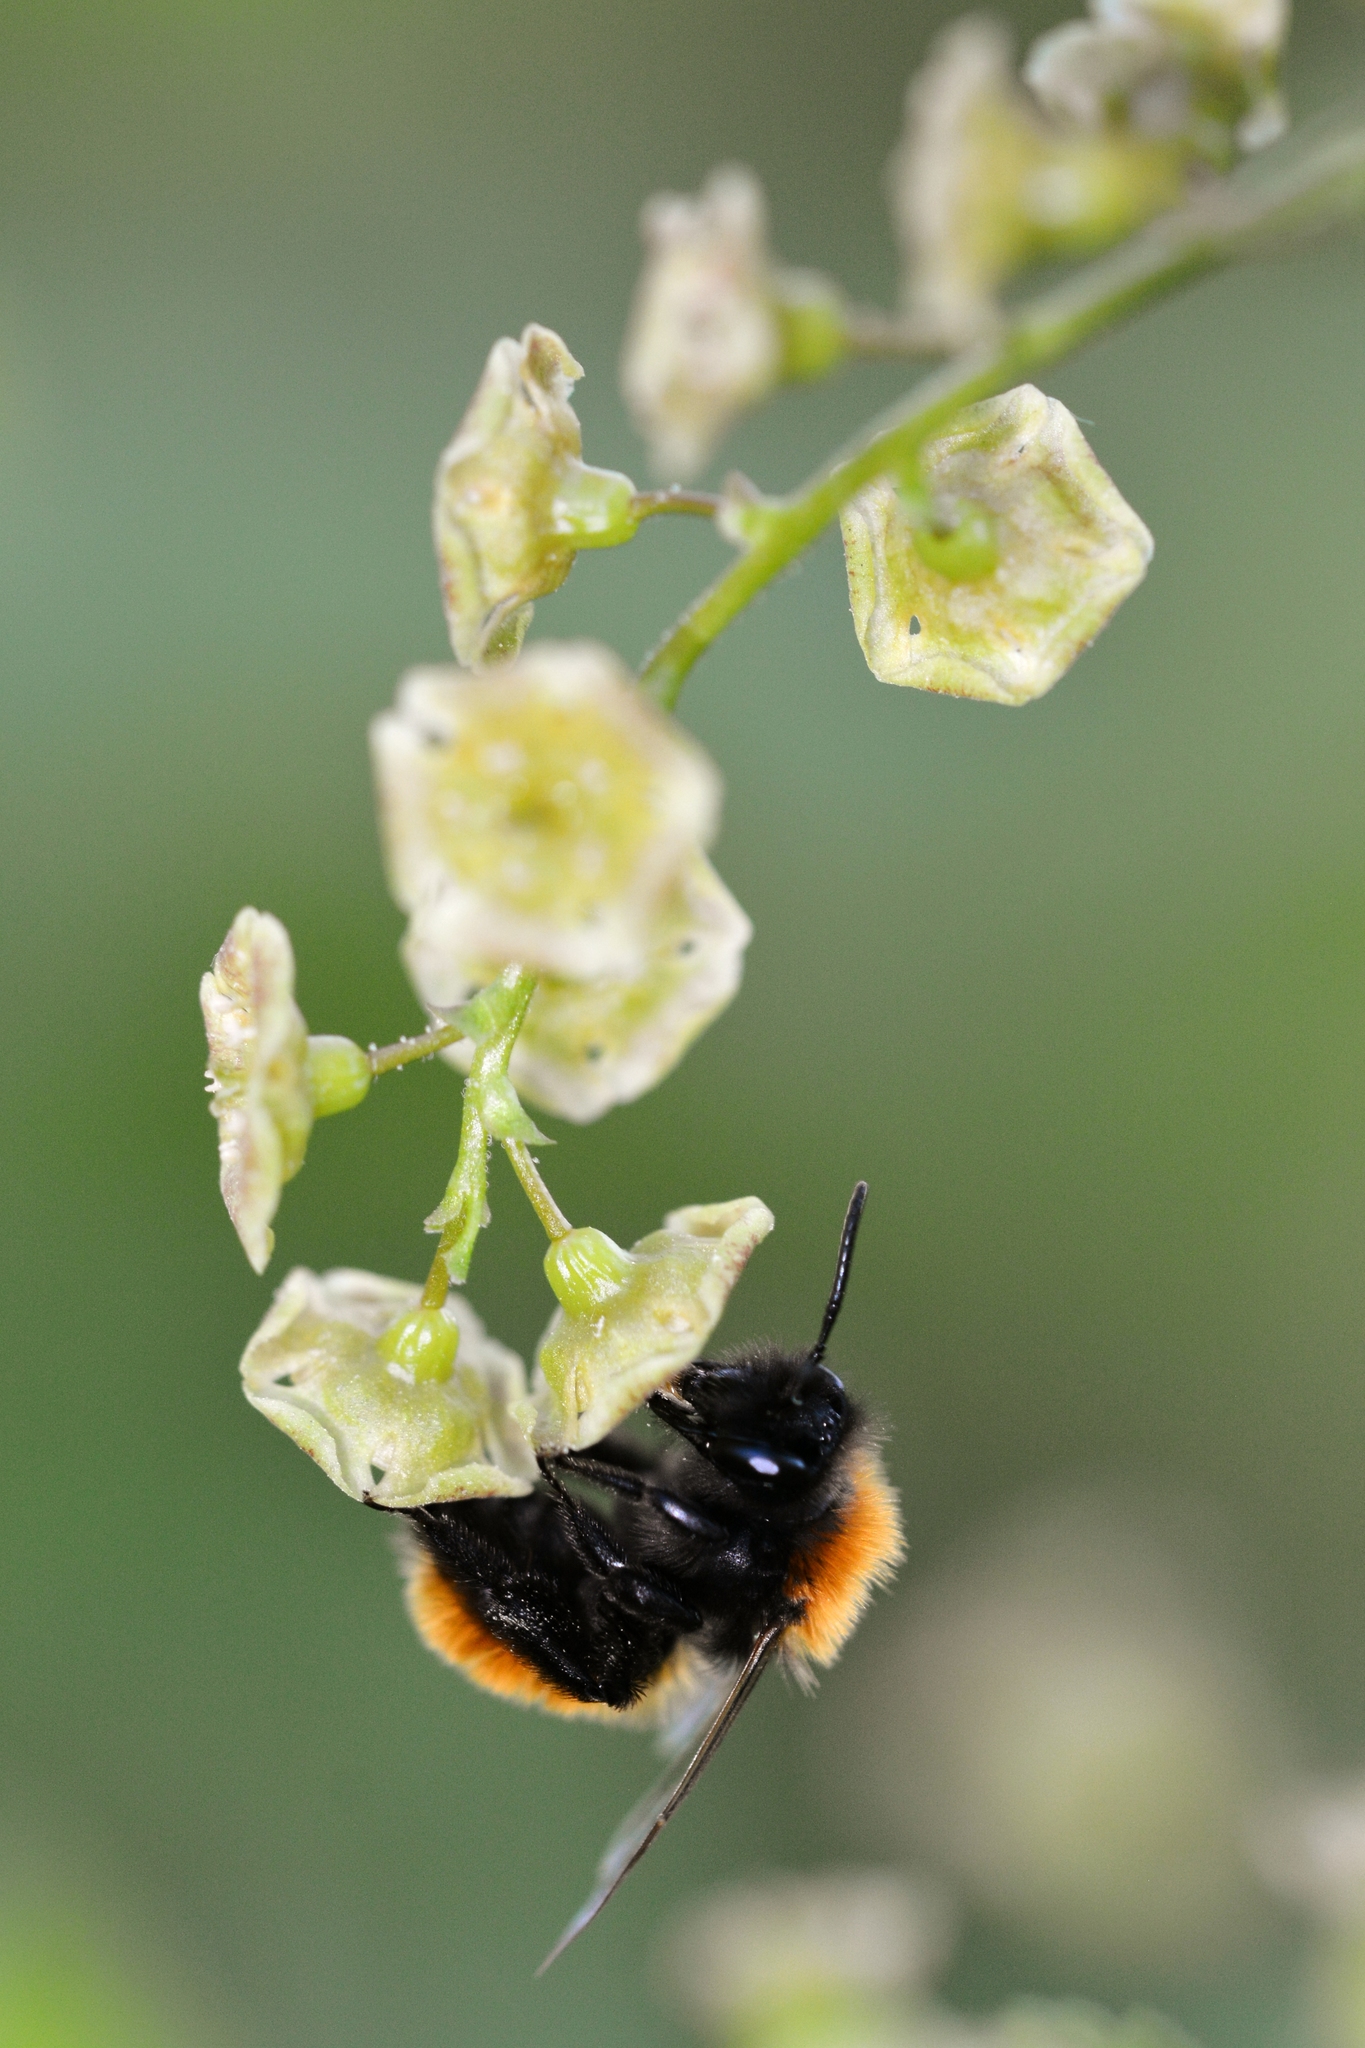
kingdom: Animalia
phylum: Arthropoda
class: Insecta
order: Hymenoptera
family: Andrenidae
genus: Andrena
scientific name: Andrena fulva
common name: Tawny mining bee
